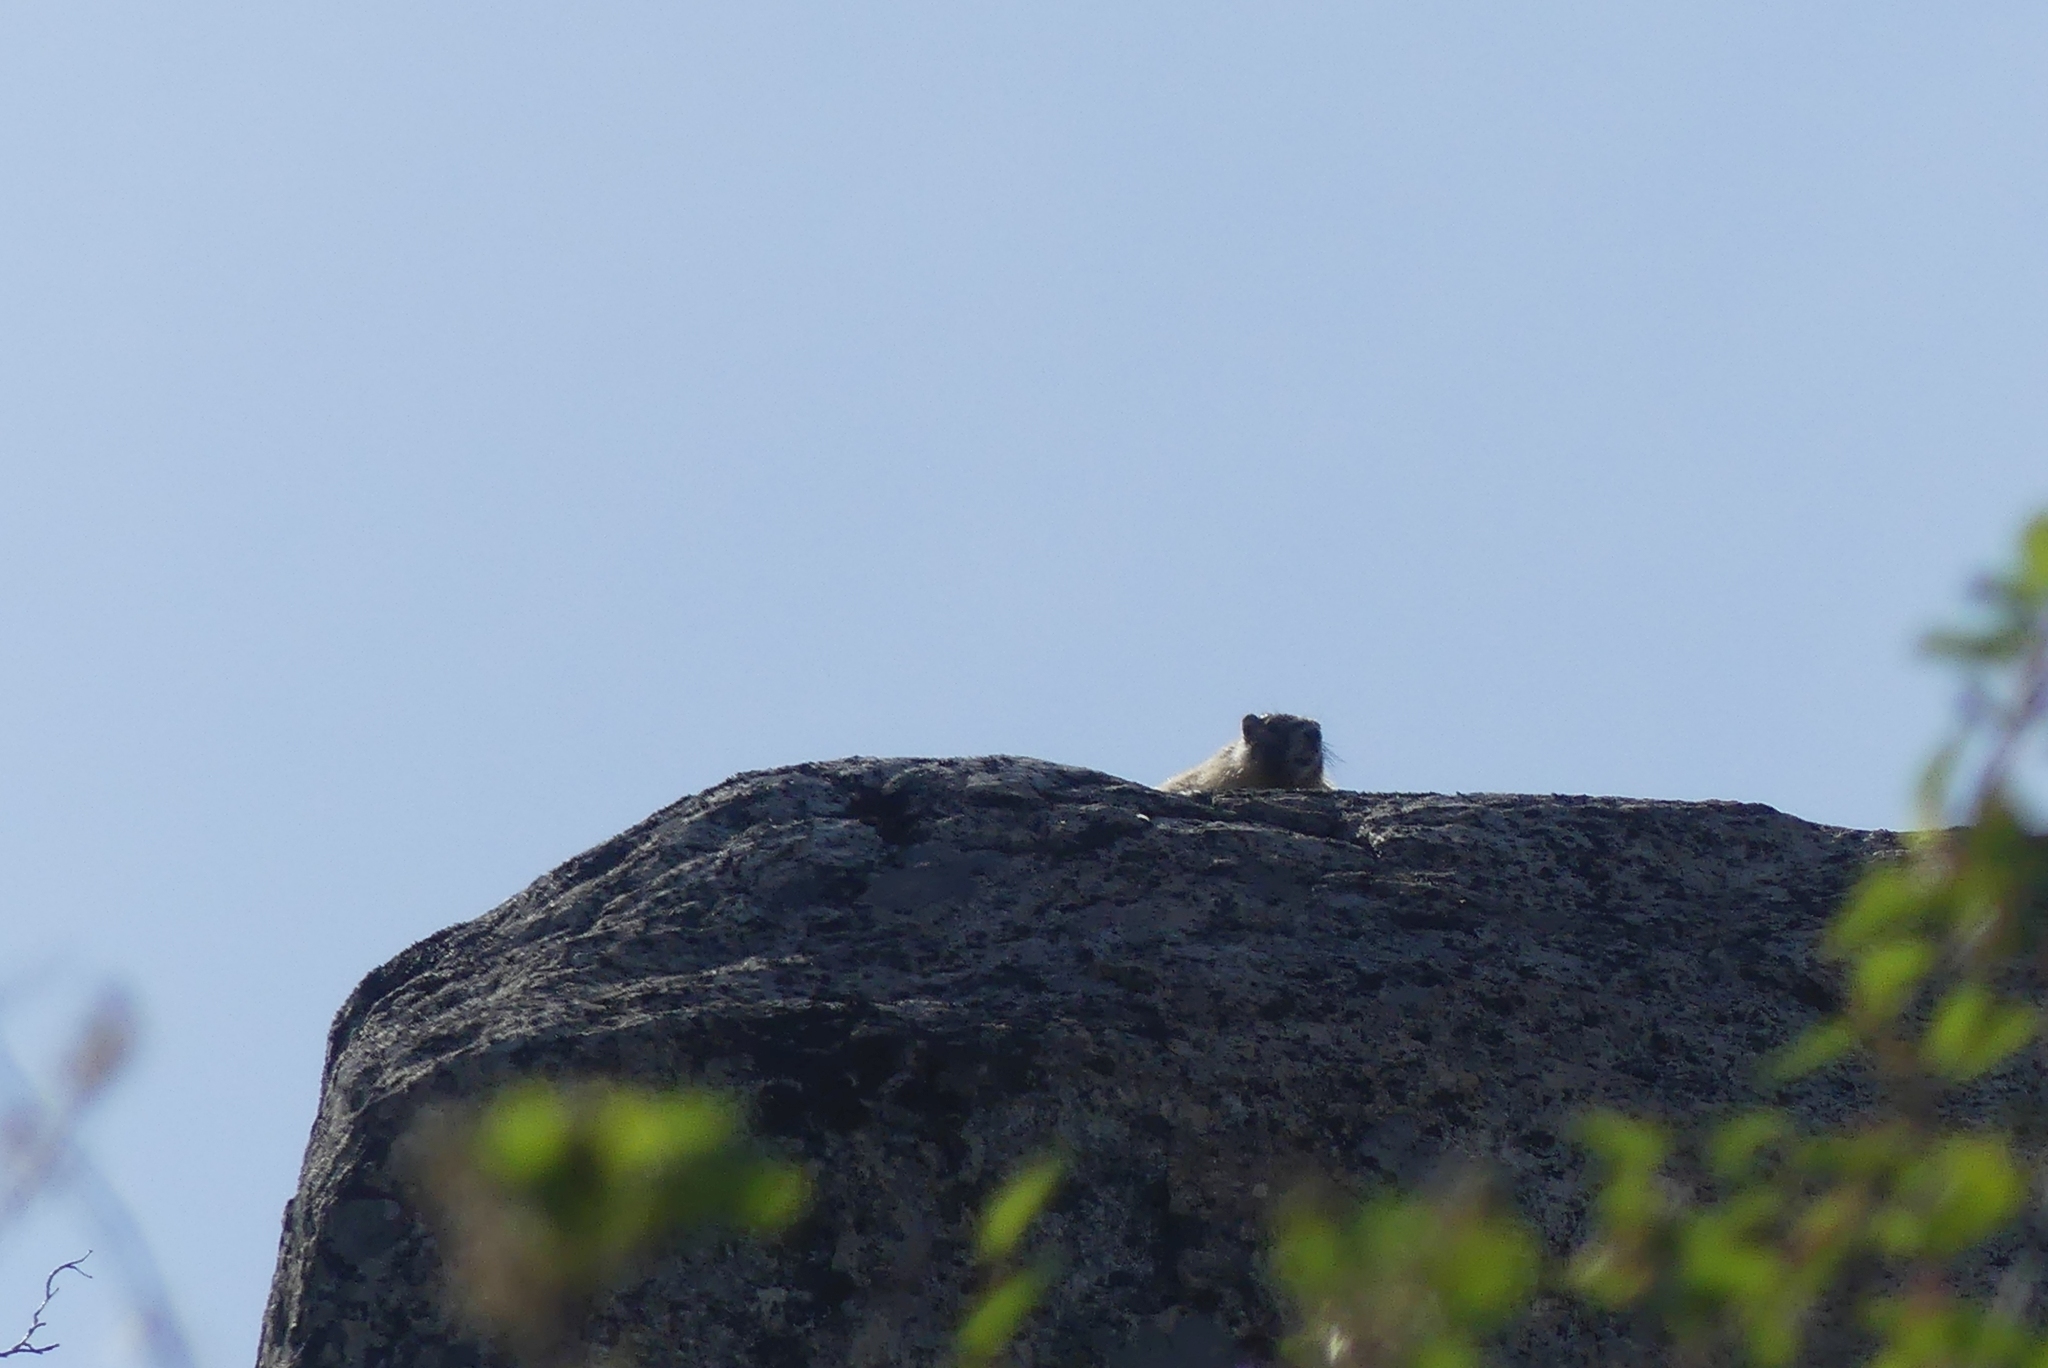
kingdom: Animalia
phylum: Chordata
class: Mammalia
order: Rodentia
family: Sciuridae
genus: Marmota
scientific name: Marmota flaviventris
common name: Yellow-bellied marmot
